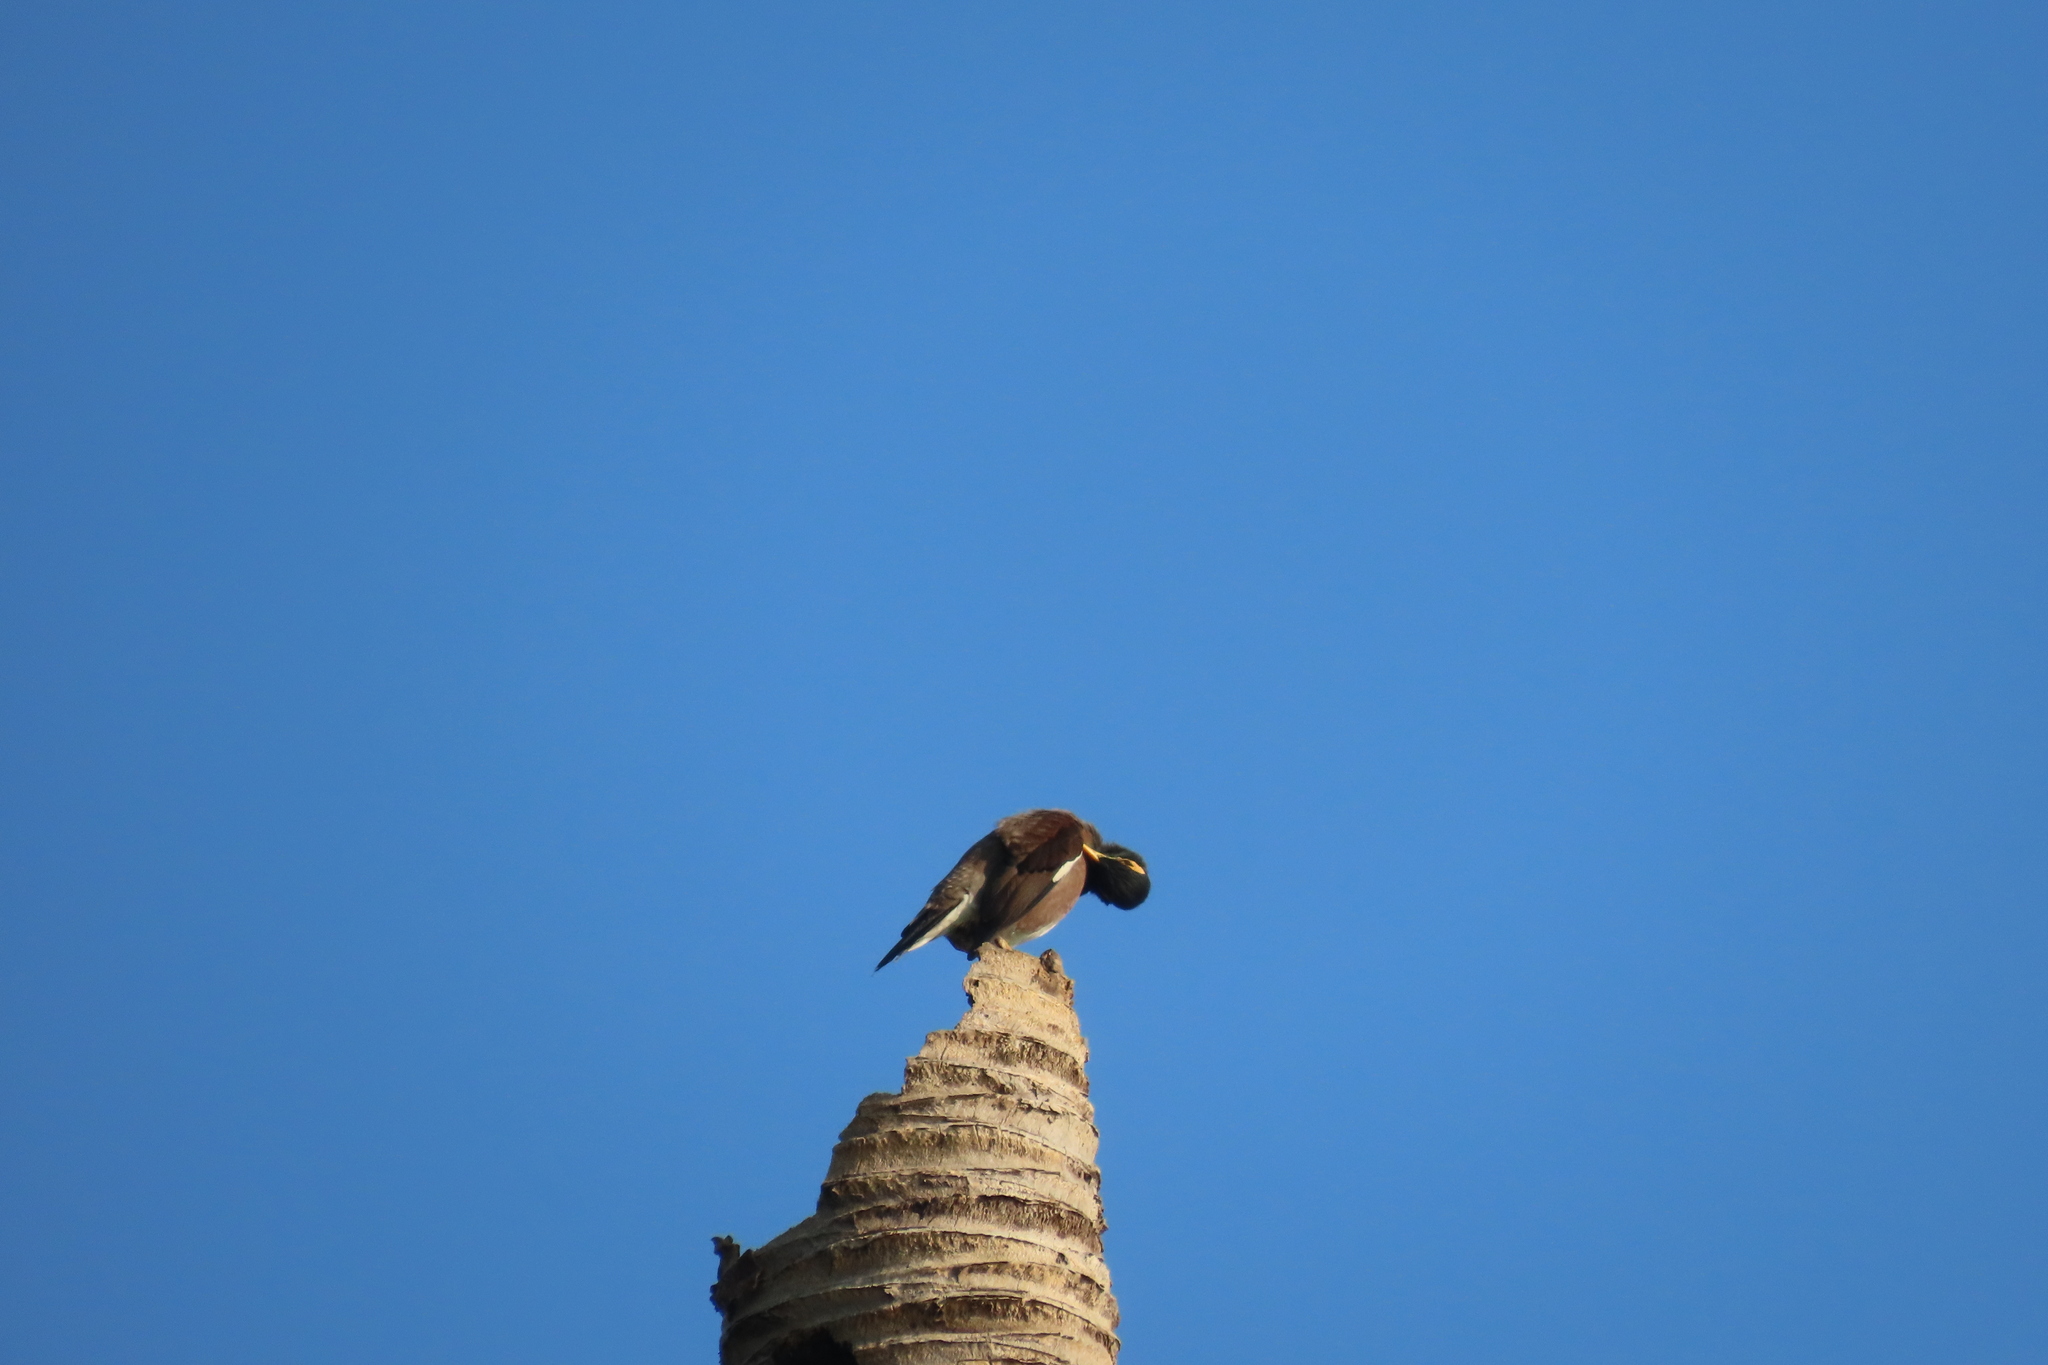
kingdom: Animalia
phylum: Chordata
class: Aves
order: Passeriformes
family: Sturnidae
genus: Acridotheres
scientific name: Acridotheres tristis
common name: Common myna
